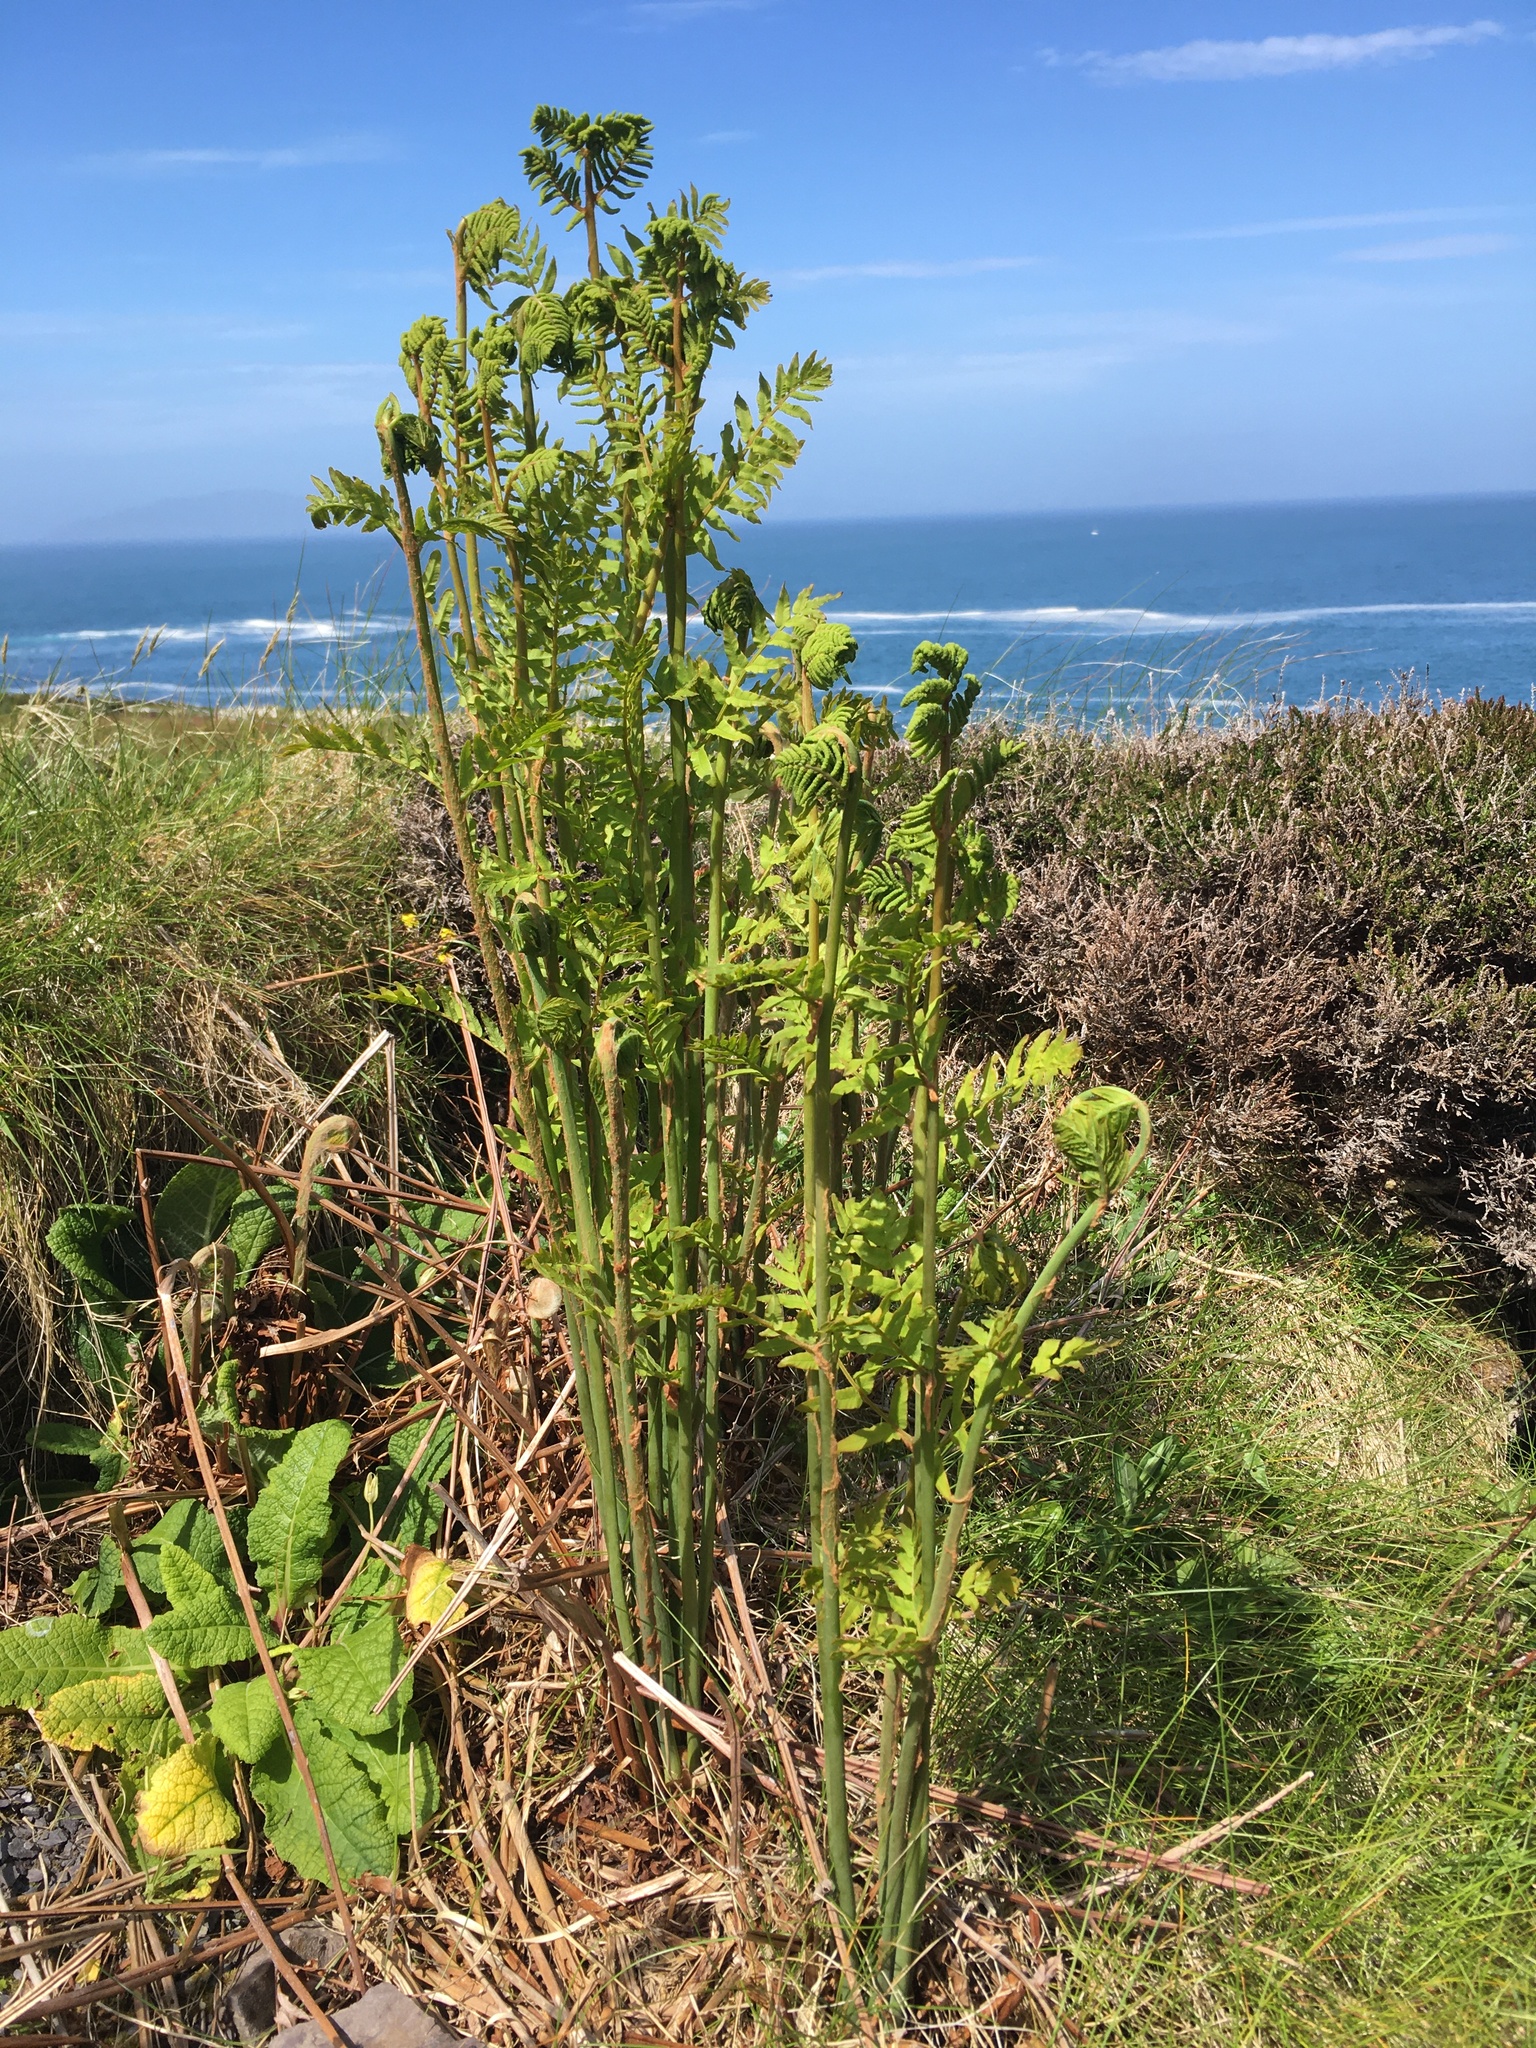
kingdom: Plantae
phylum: Tracheophyta
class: Polypodiopsida
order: Osmundales
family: Osmundaceae
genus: Osmunda
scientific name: Osmunda regalis
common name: Royal fern
